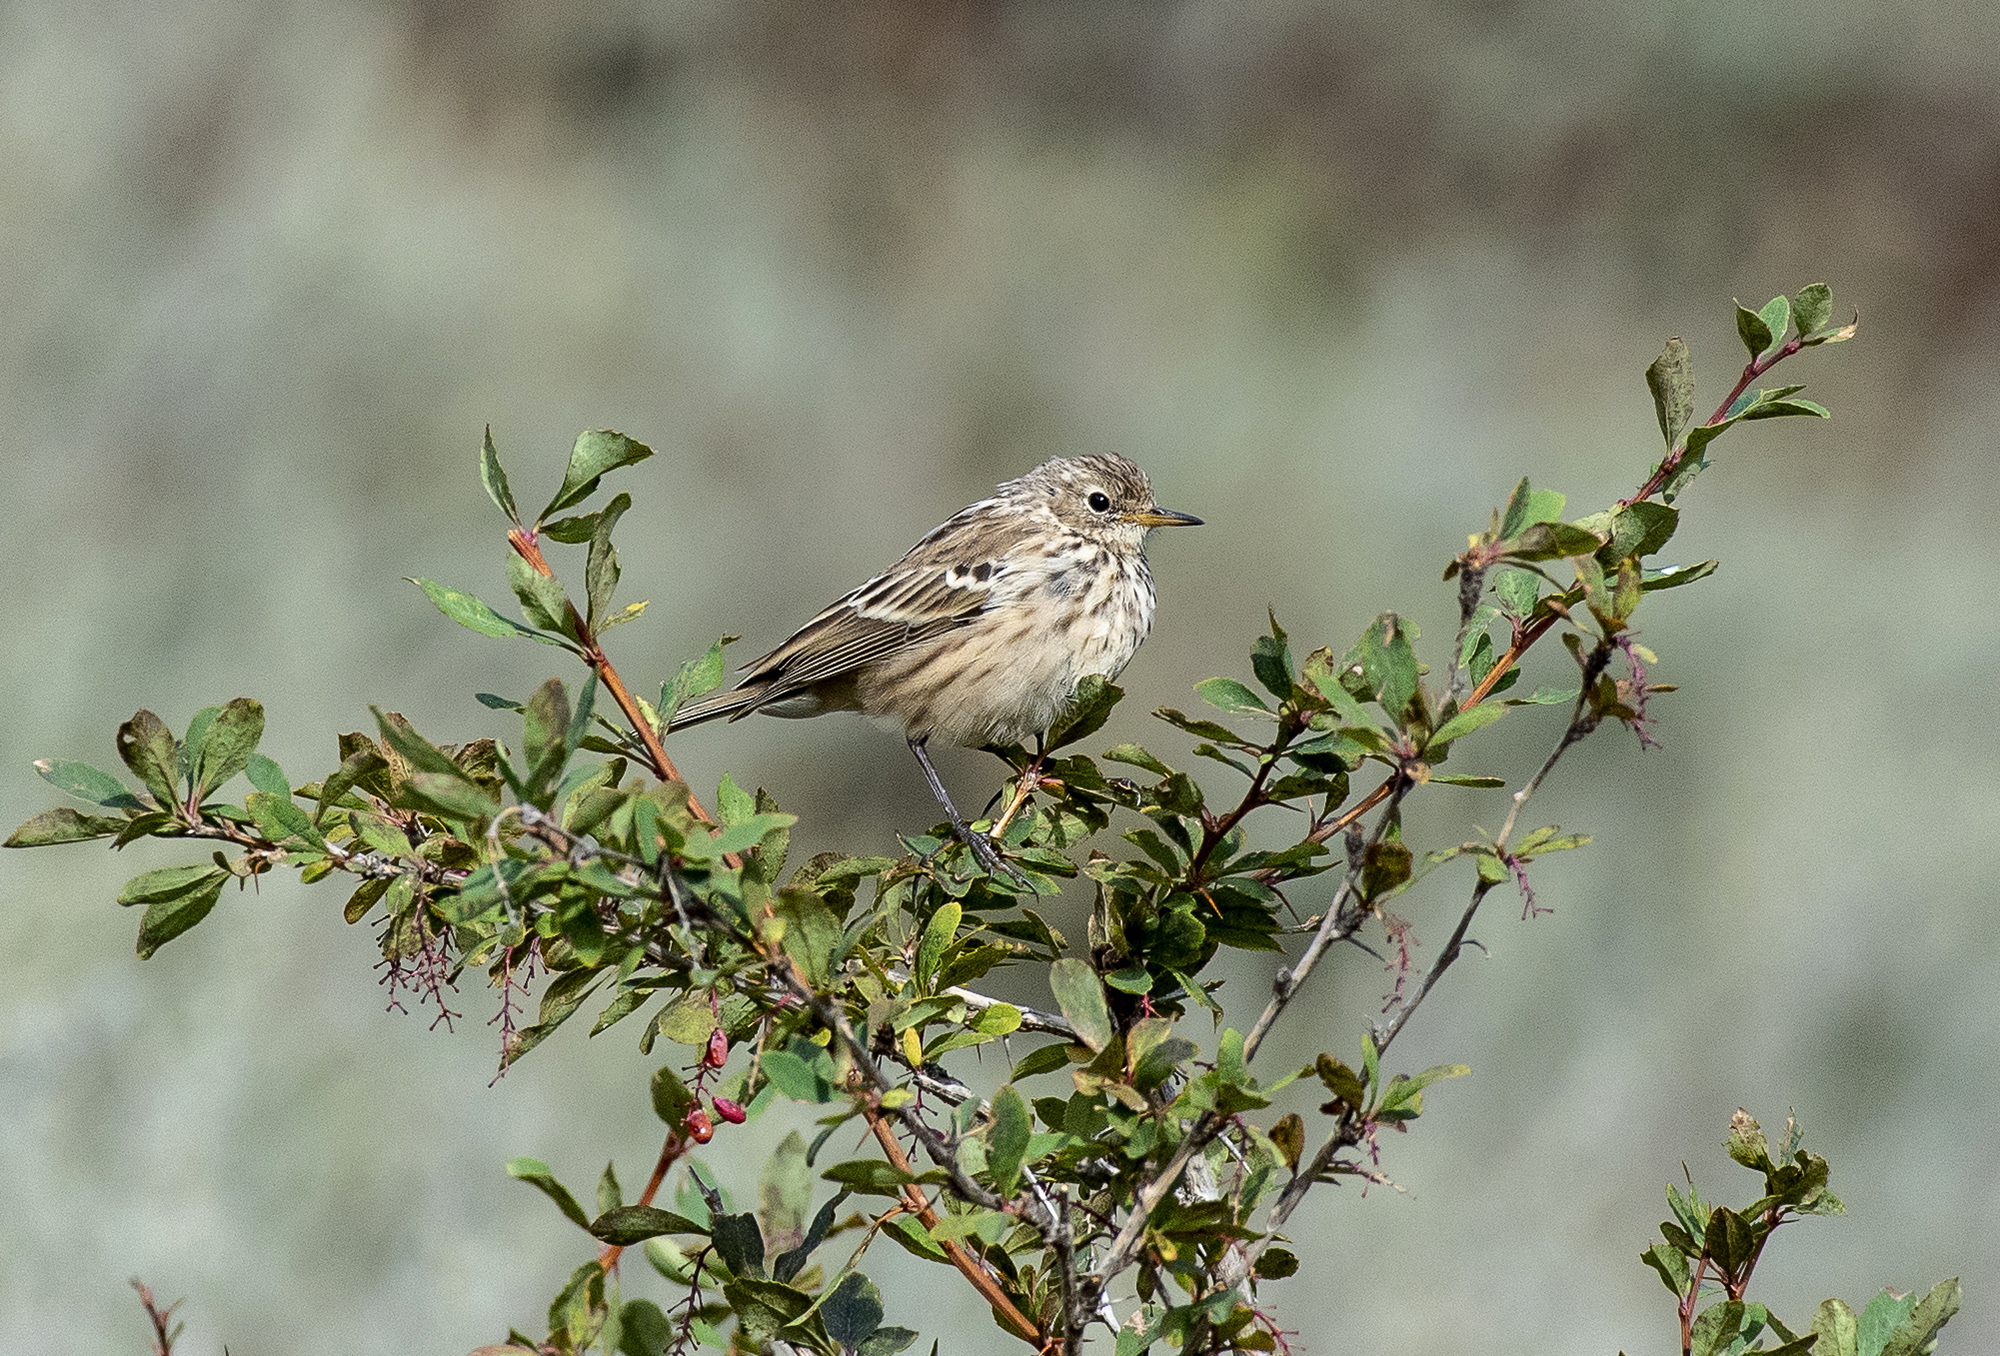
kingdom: Animalia
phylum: Chordata
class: Aves
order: Passeriformes
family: Motacillidae
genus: Anthus
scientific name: Anthus spinoletta
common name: Water pipit
